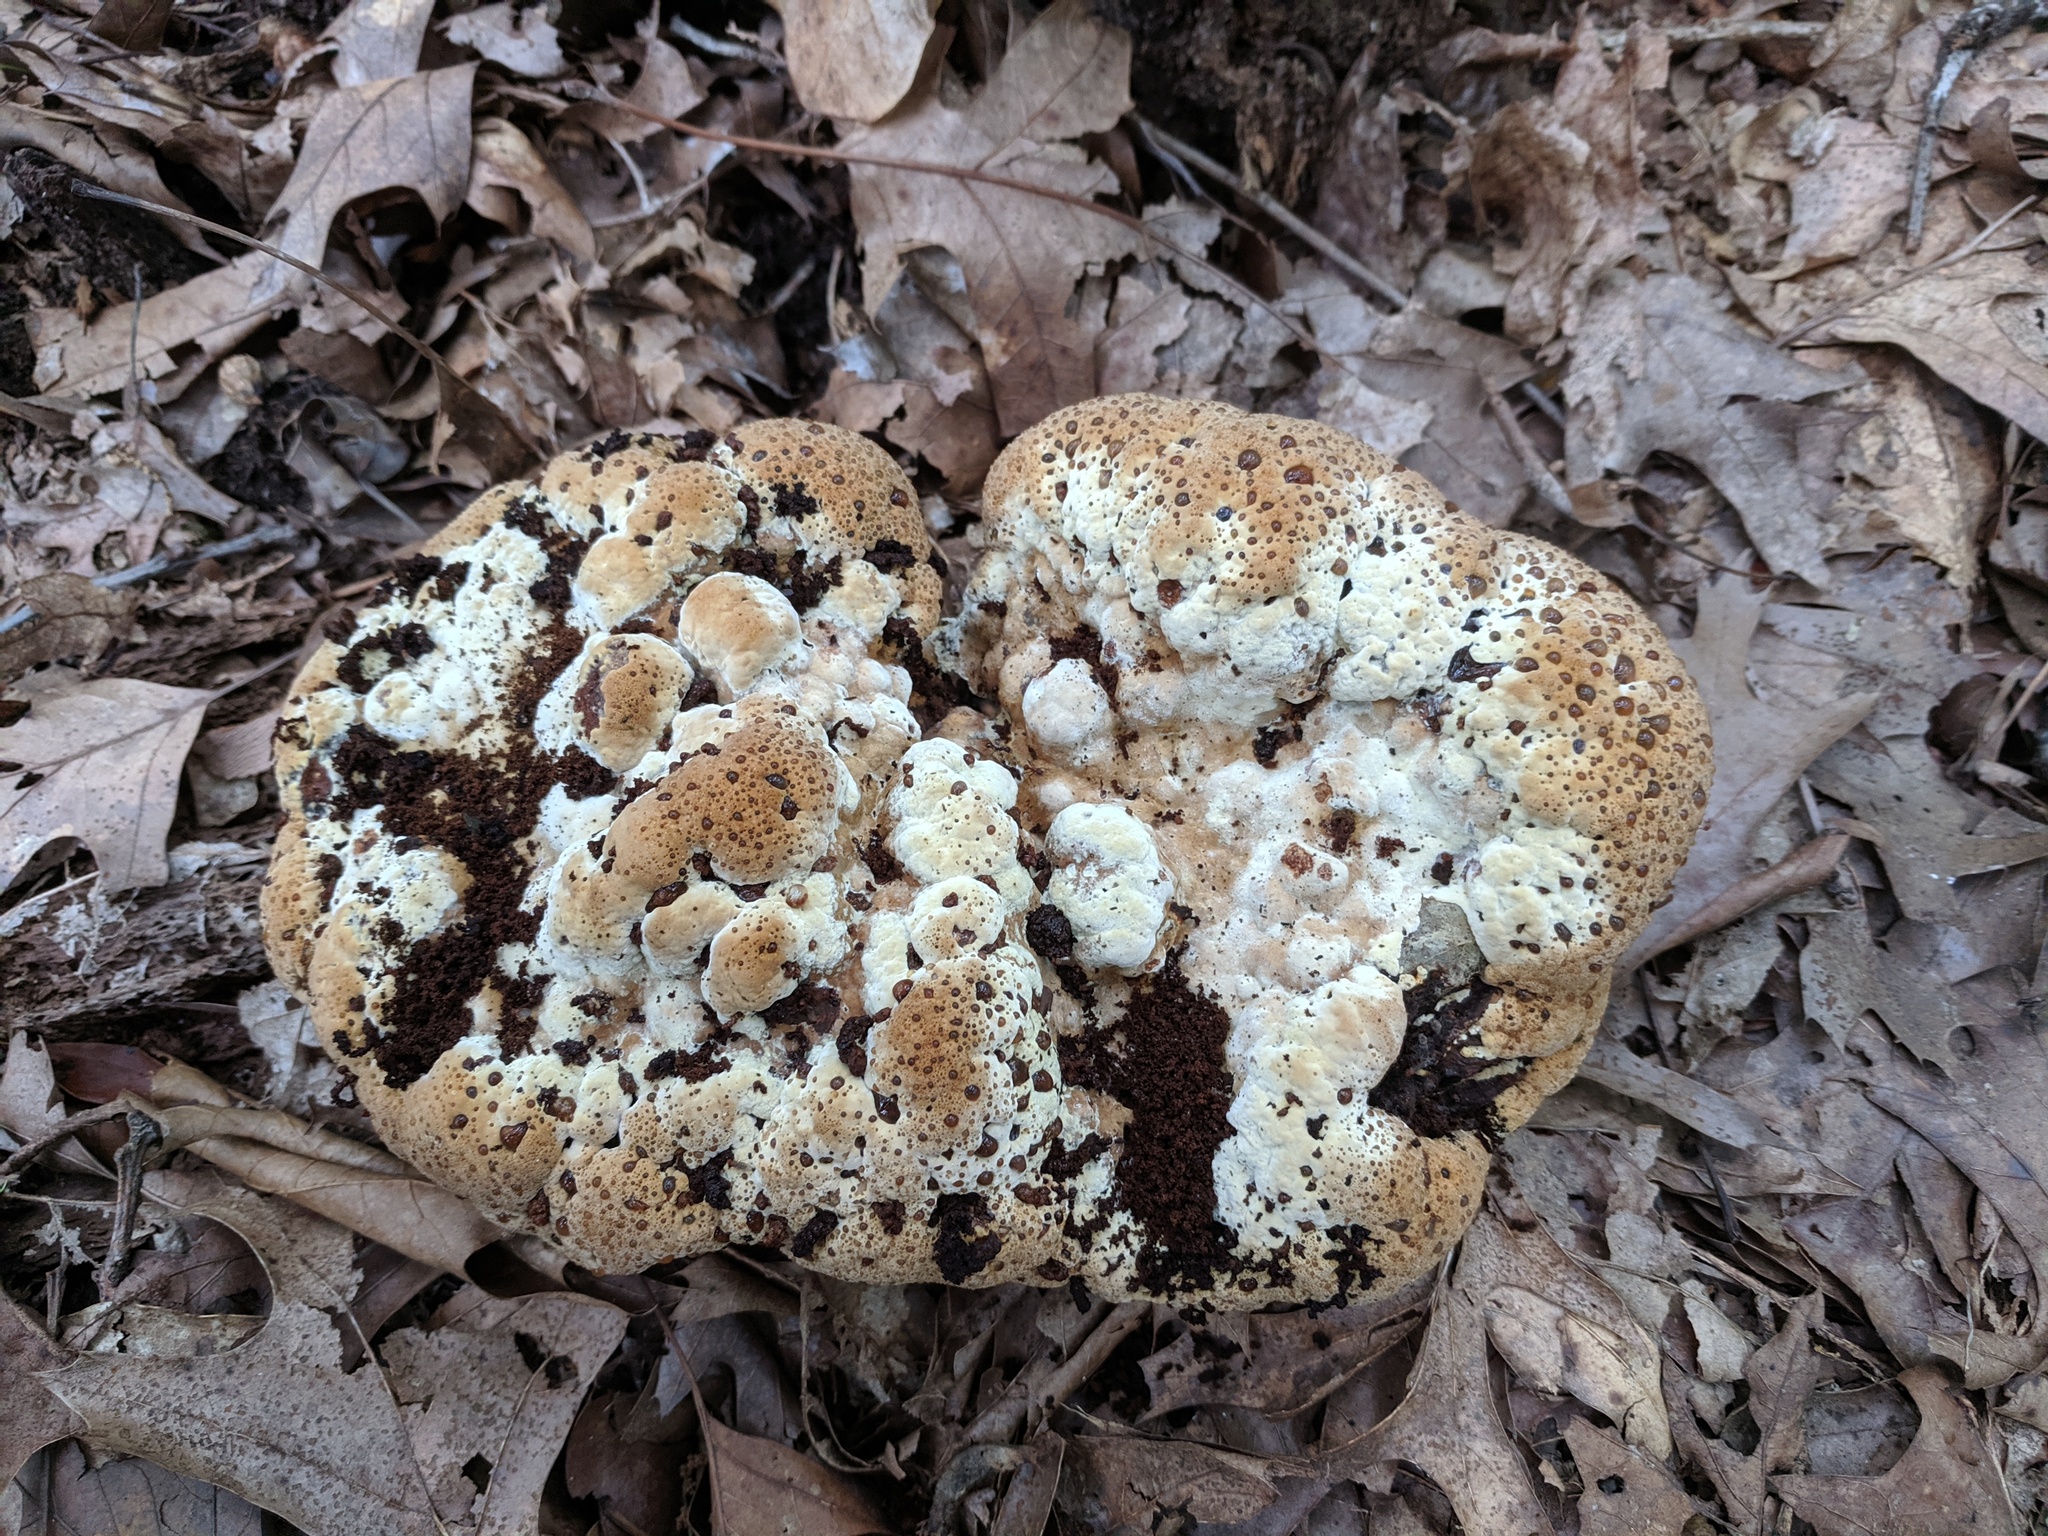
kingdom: Fungi
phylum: Basidiomycota
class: Agaricomycetes
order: Hymenochaetales
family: Hymenochaetaceae
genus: Pseudoinonotus
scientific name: Pseudoinonotus dryadeus
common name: Oak bracket
